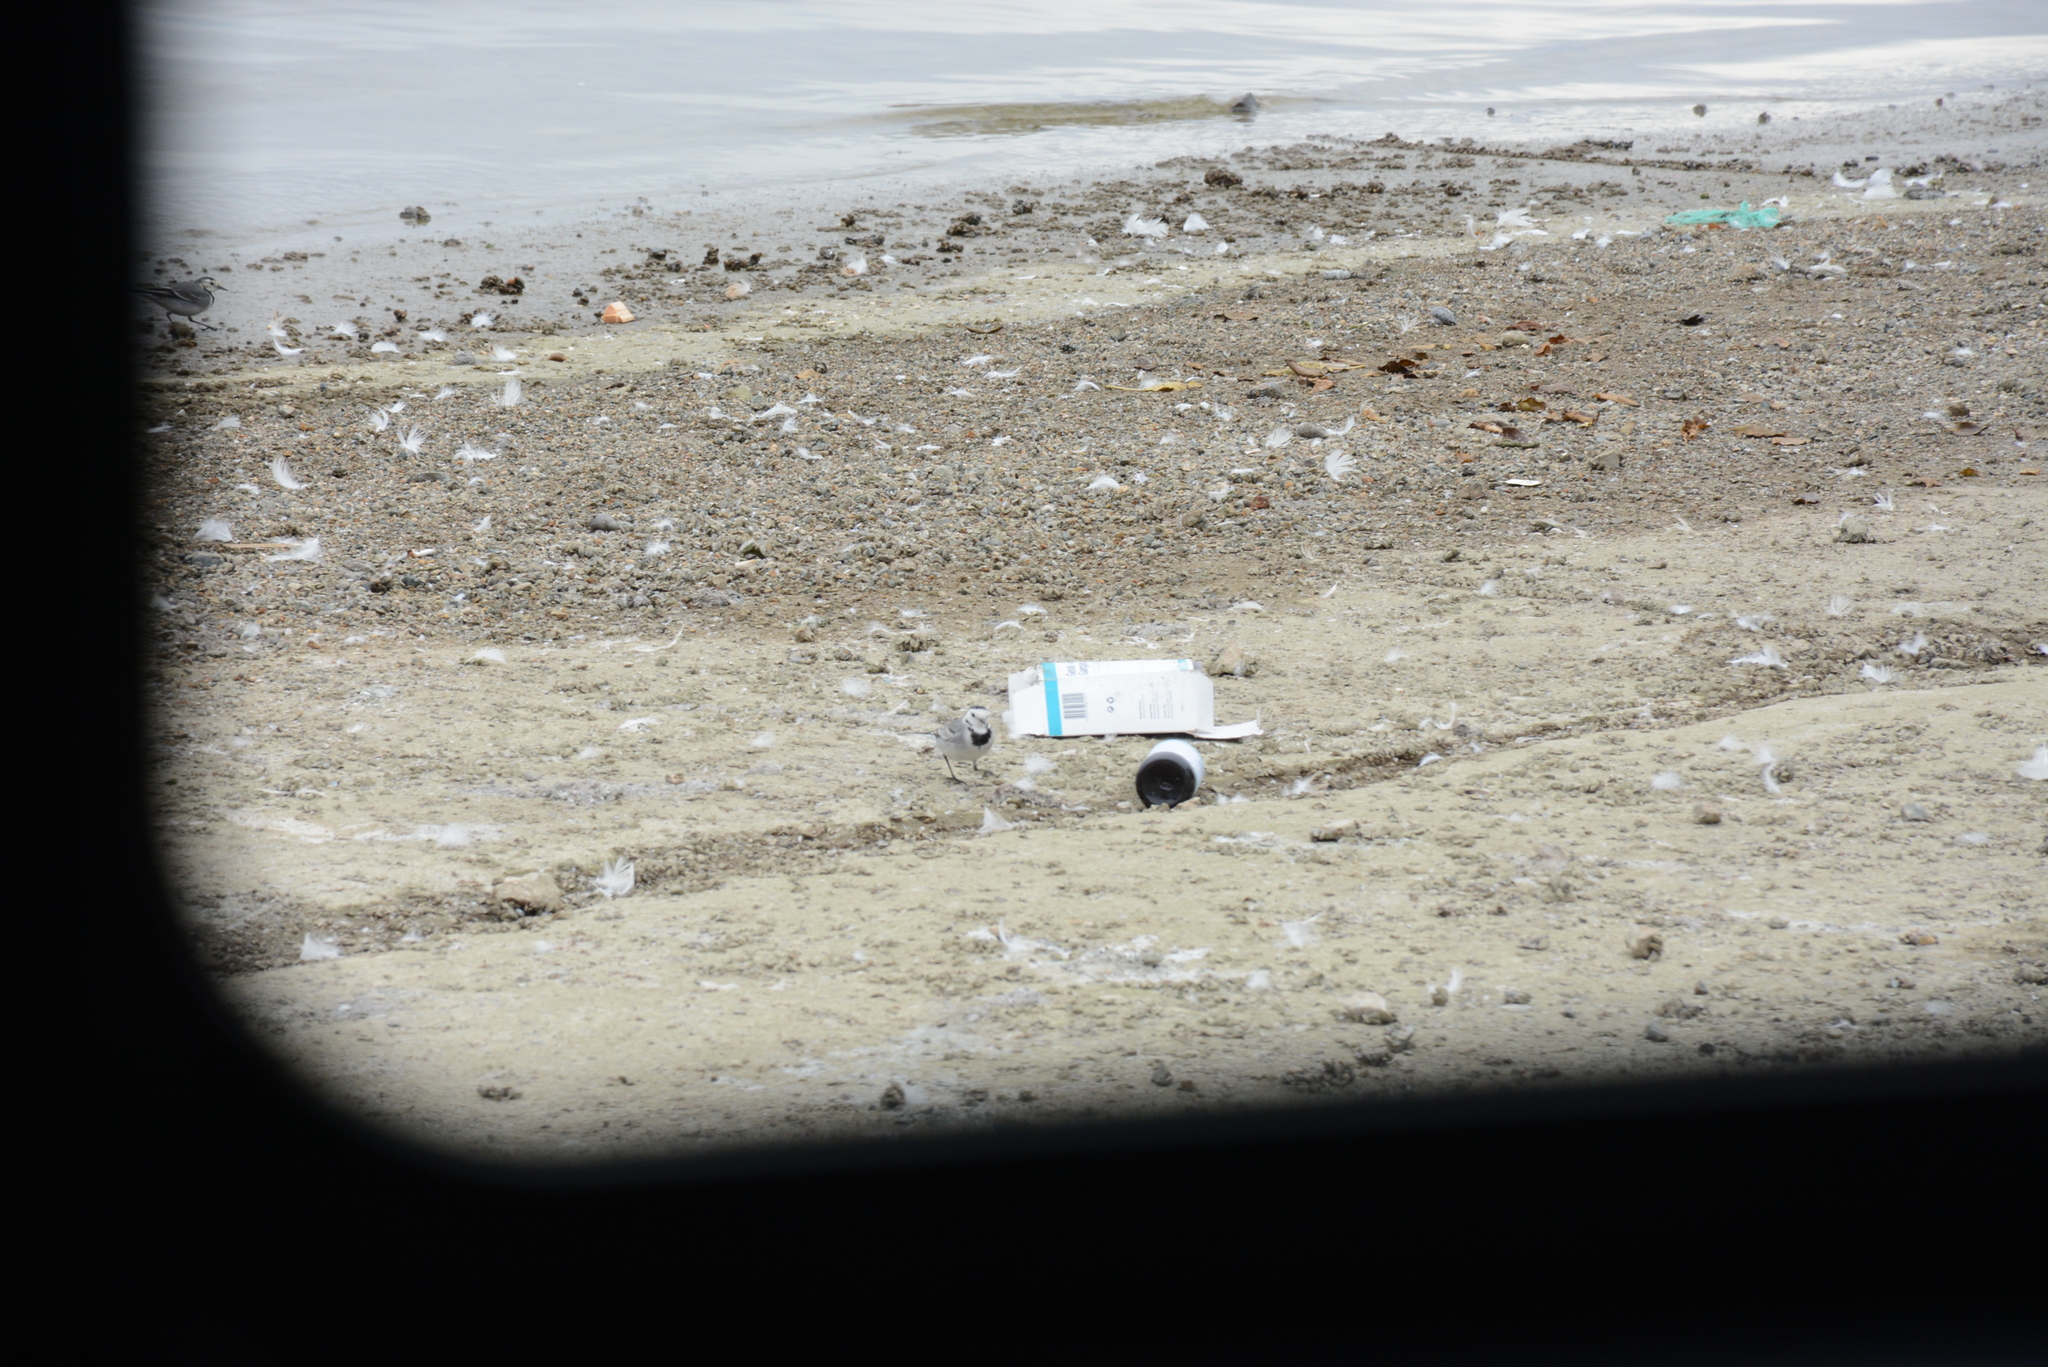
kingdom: Animalia
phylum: Chordata
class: Aves
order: Passeriformes
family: Motacillidae
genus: Motacilla
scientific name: Motacilla alba
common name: White wagtail
